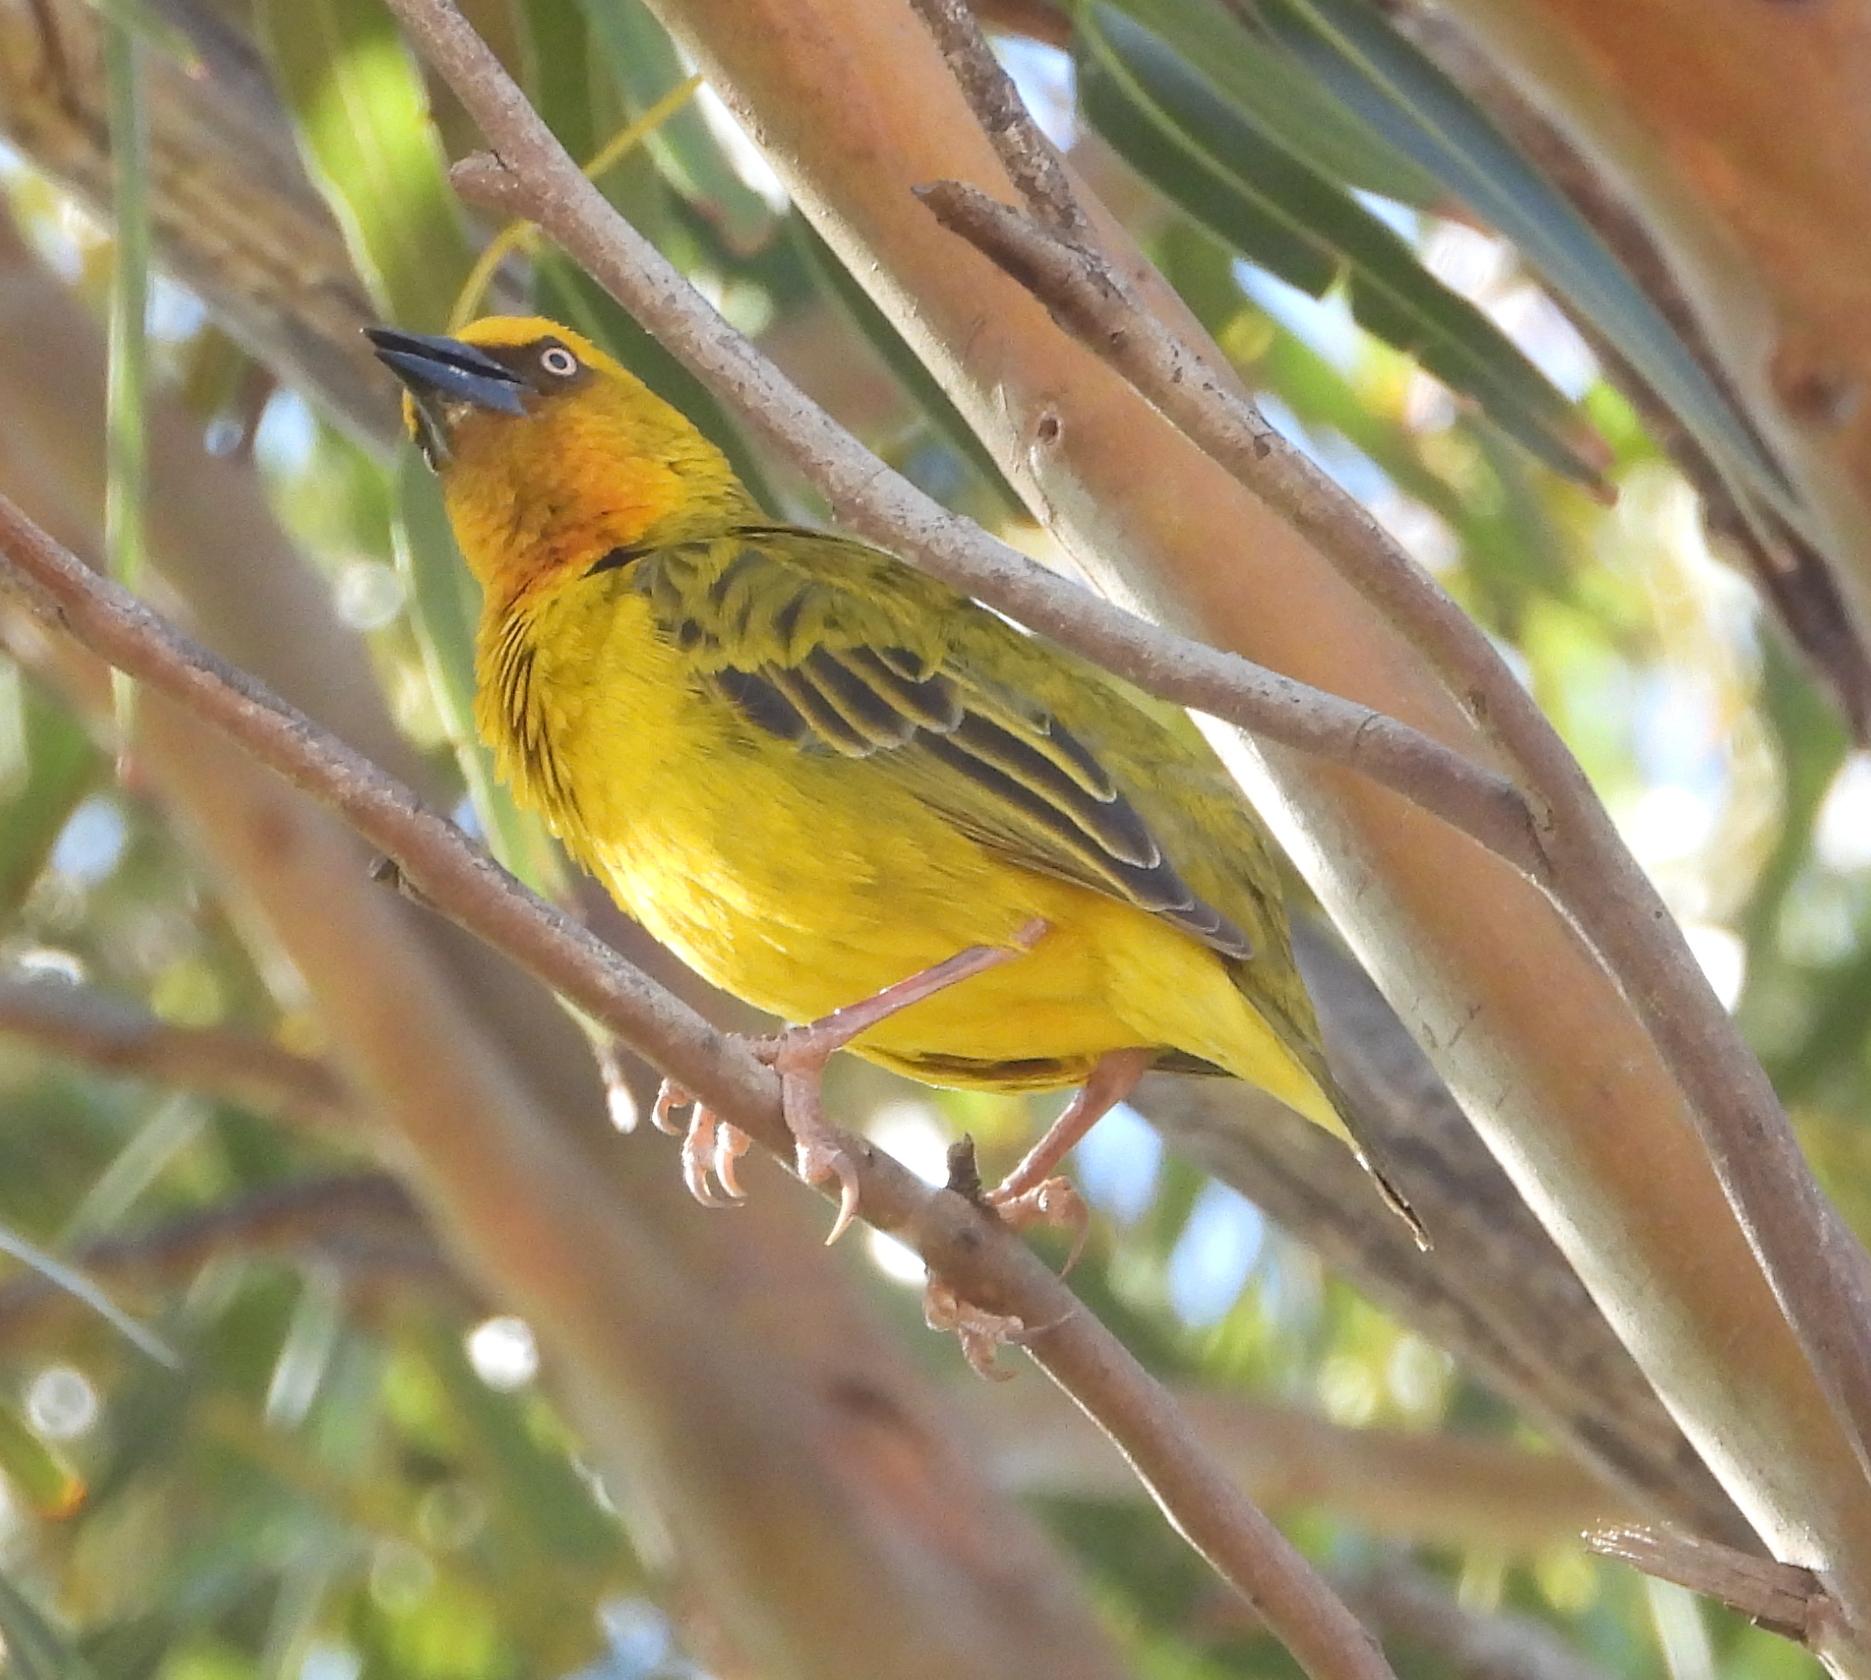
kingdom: Animalia
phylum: Chordata
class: Aves
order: Passeriformes
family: Ploceidae
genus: Ploceus
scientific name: Ploceus capensis
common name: Cape weaver
